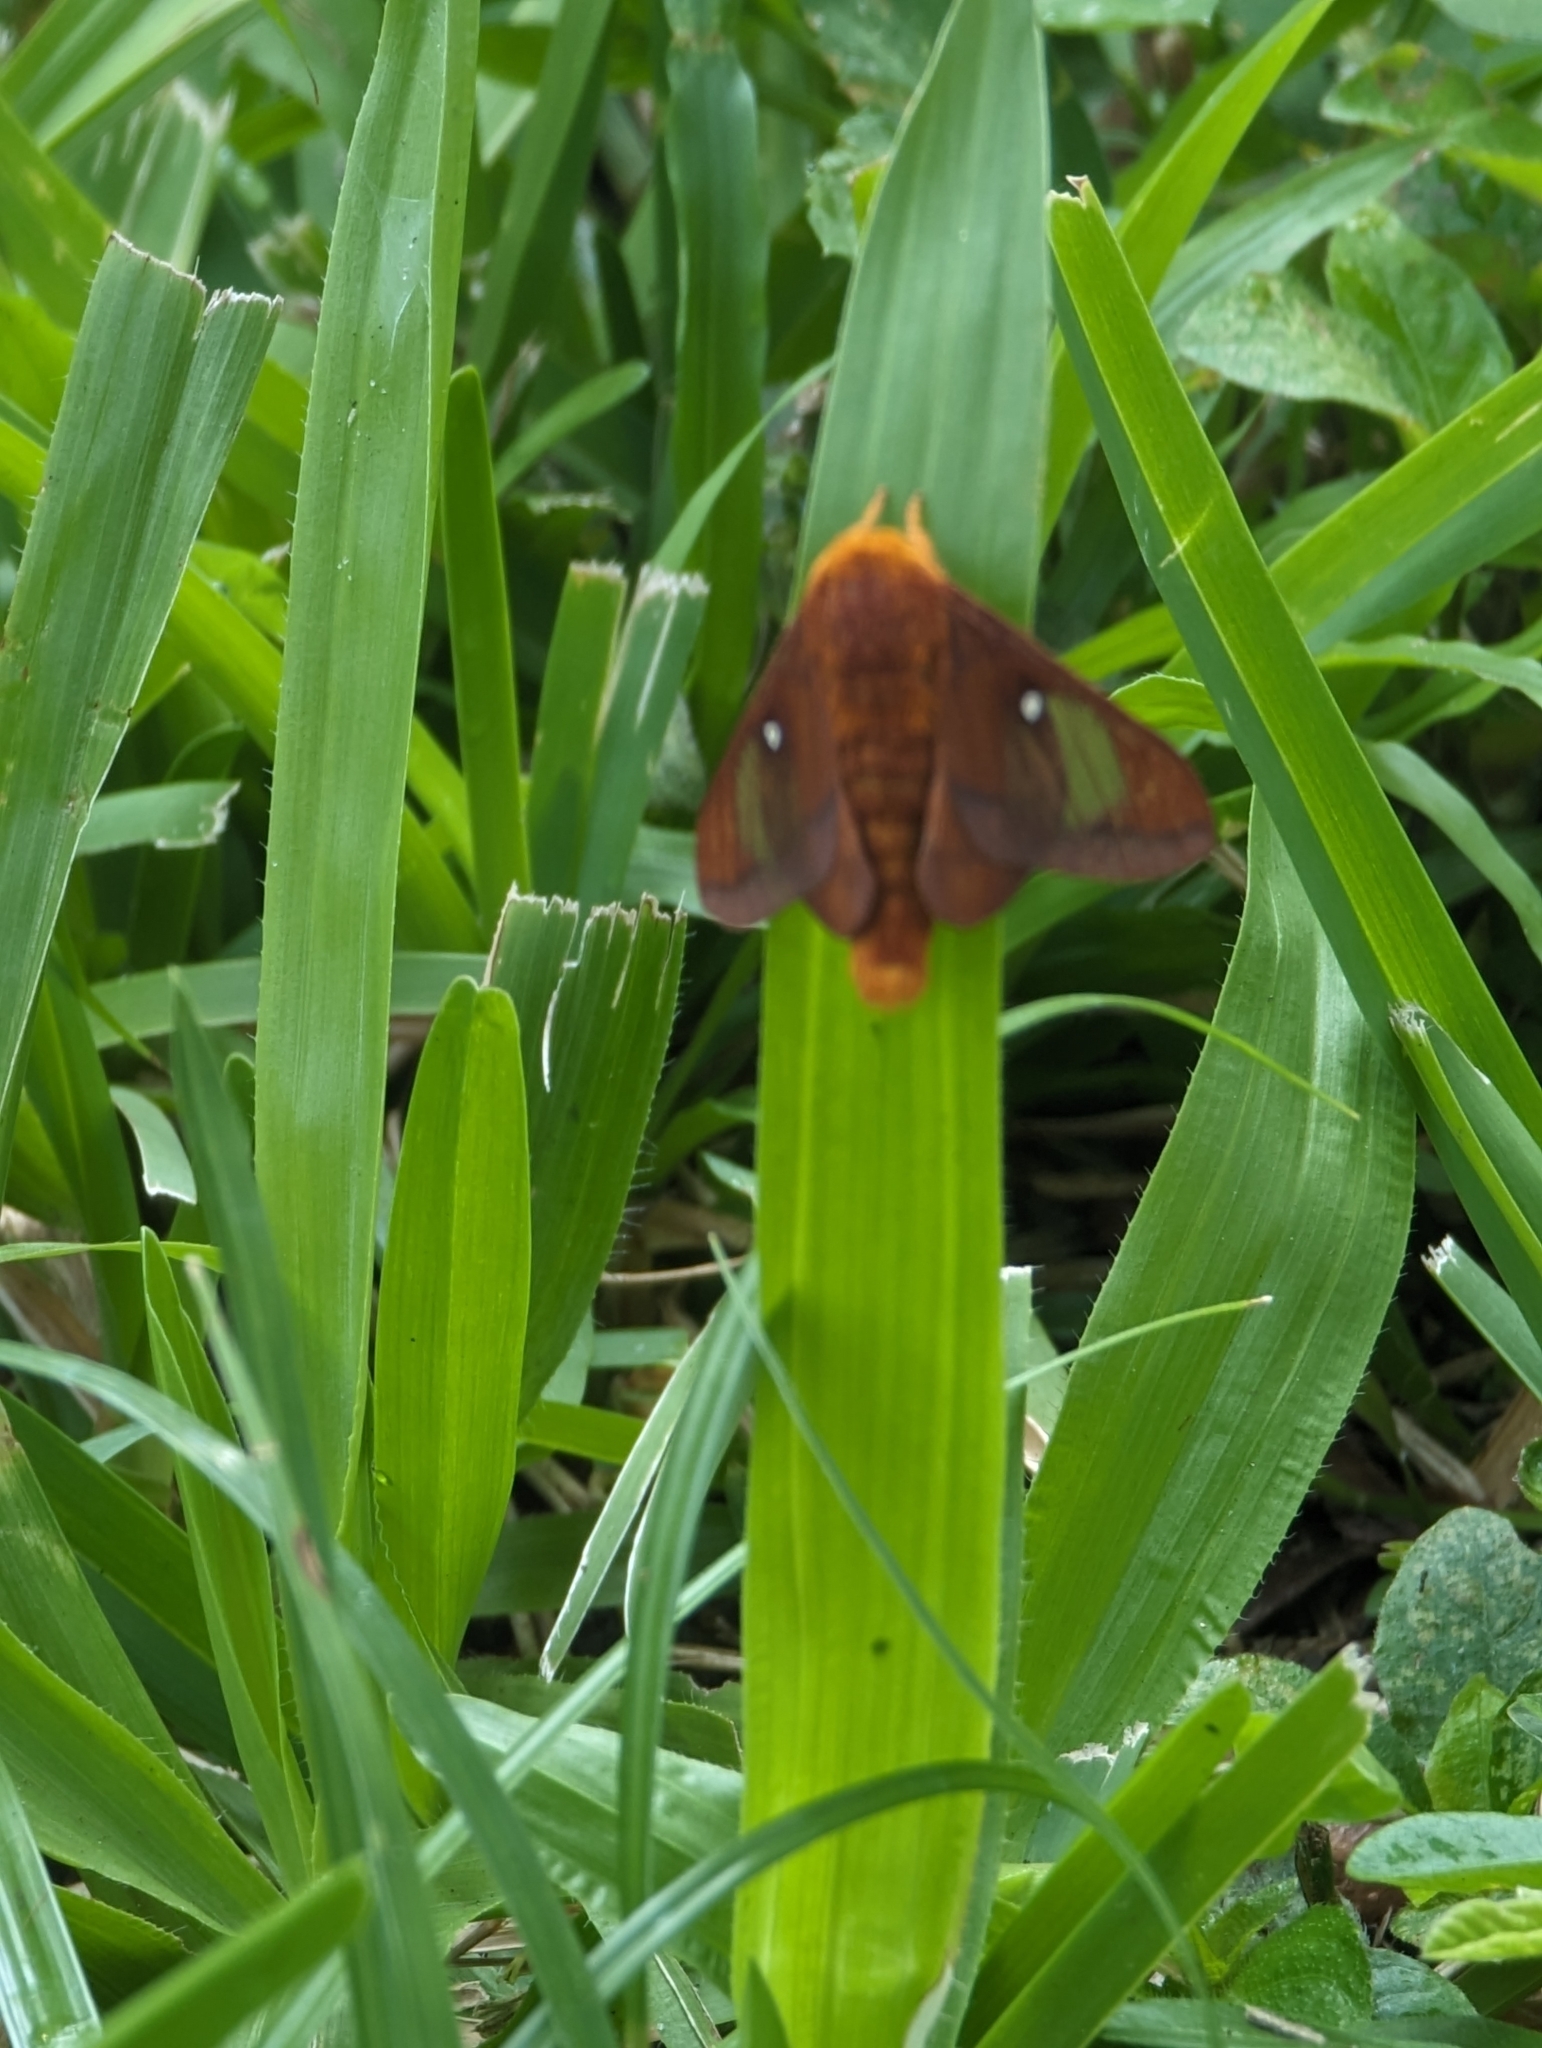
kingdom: Animalia
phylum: Arthropoda
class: Insecta
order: Lepidoptera
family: Saturniidae
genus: Anisota
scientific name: Anisota virginiensis
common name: Pink striped oakworm moth
